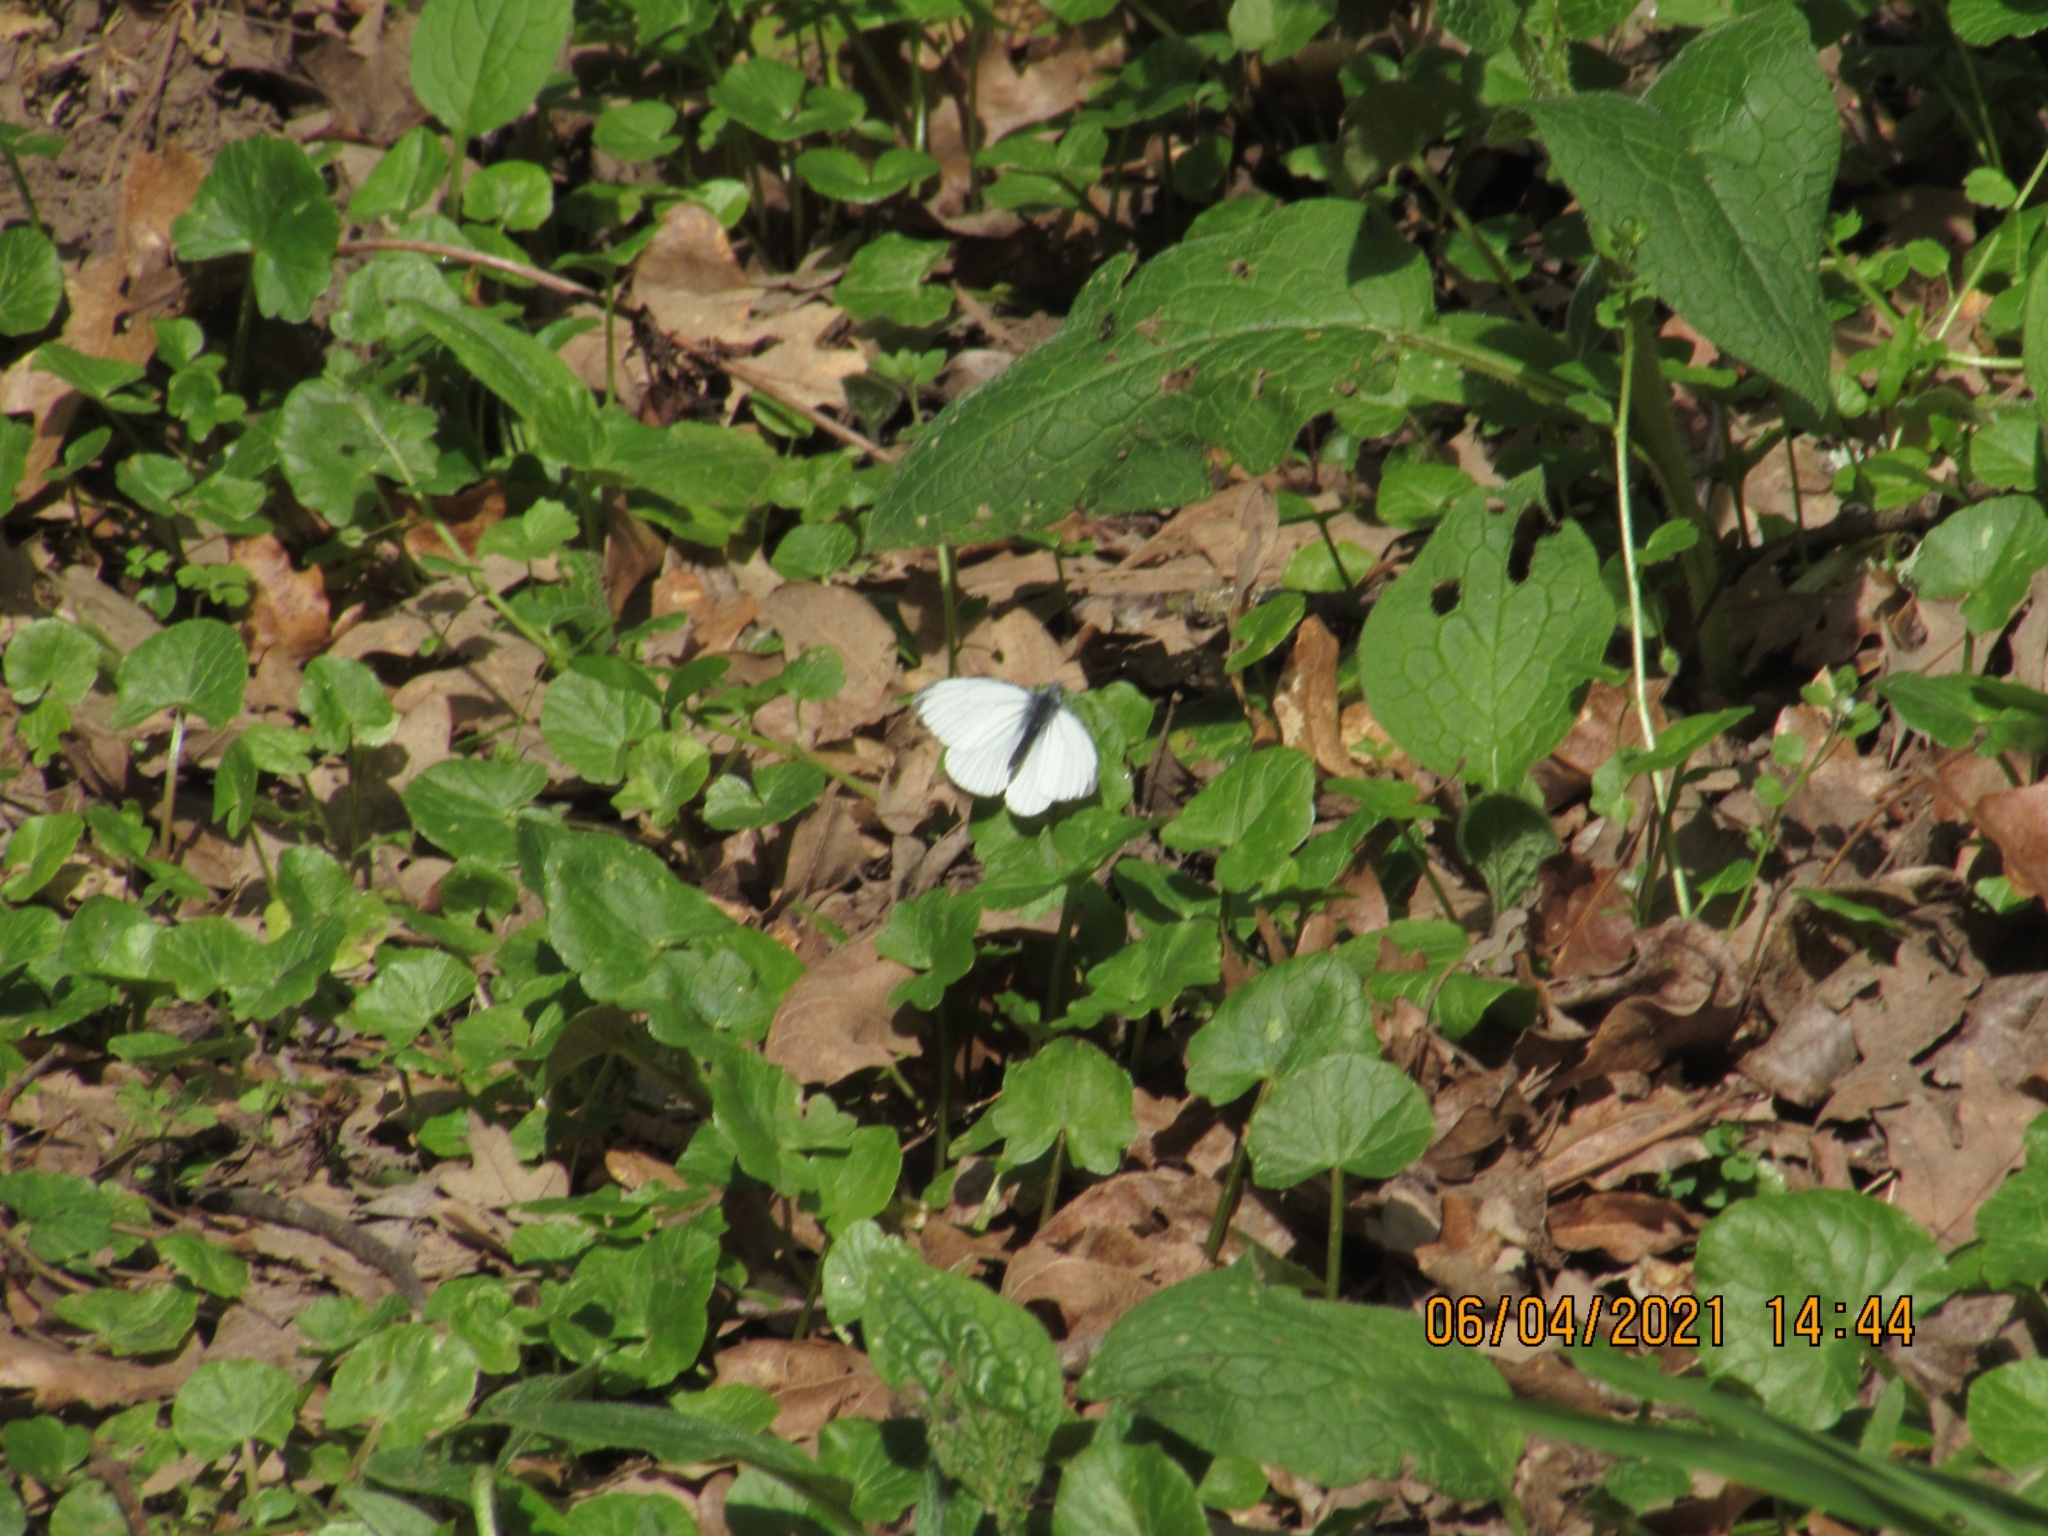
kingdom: Animalia
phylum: Arthropoda
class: Insecta
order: Lepidoptera
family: Pieridae
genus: Pieris
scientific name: Pieris napi
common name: Green-veined white
